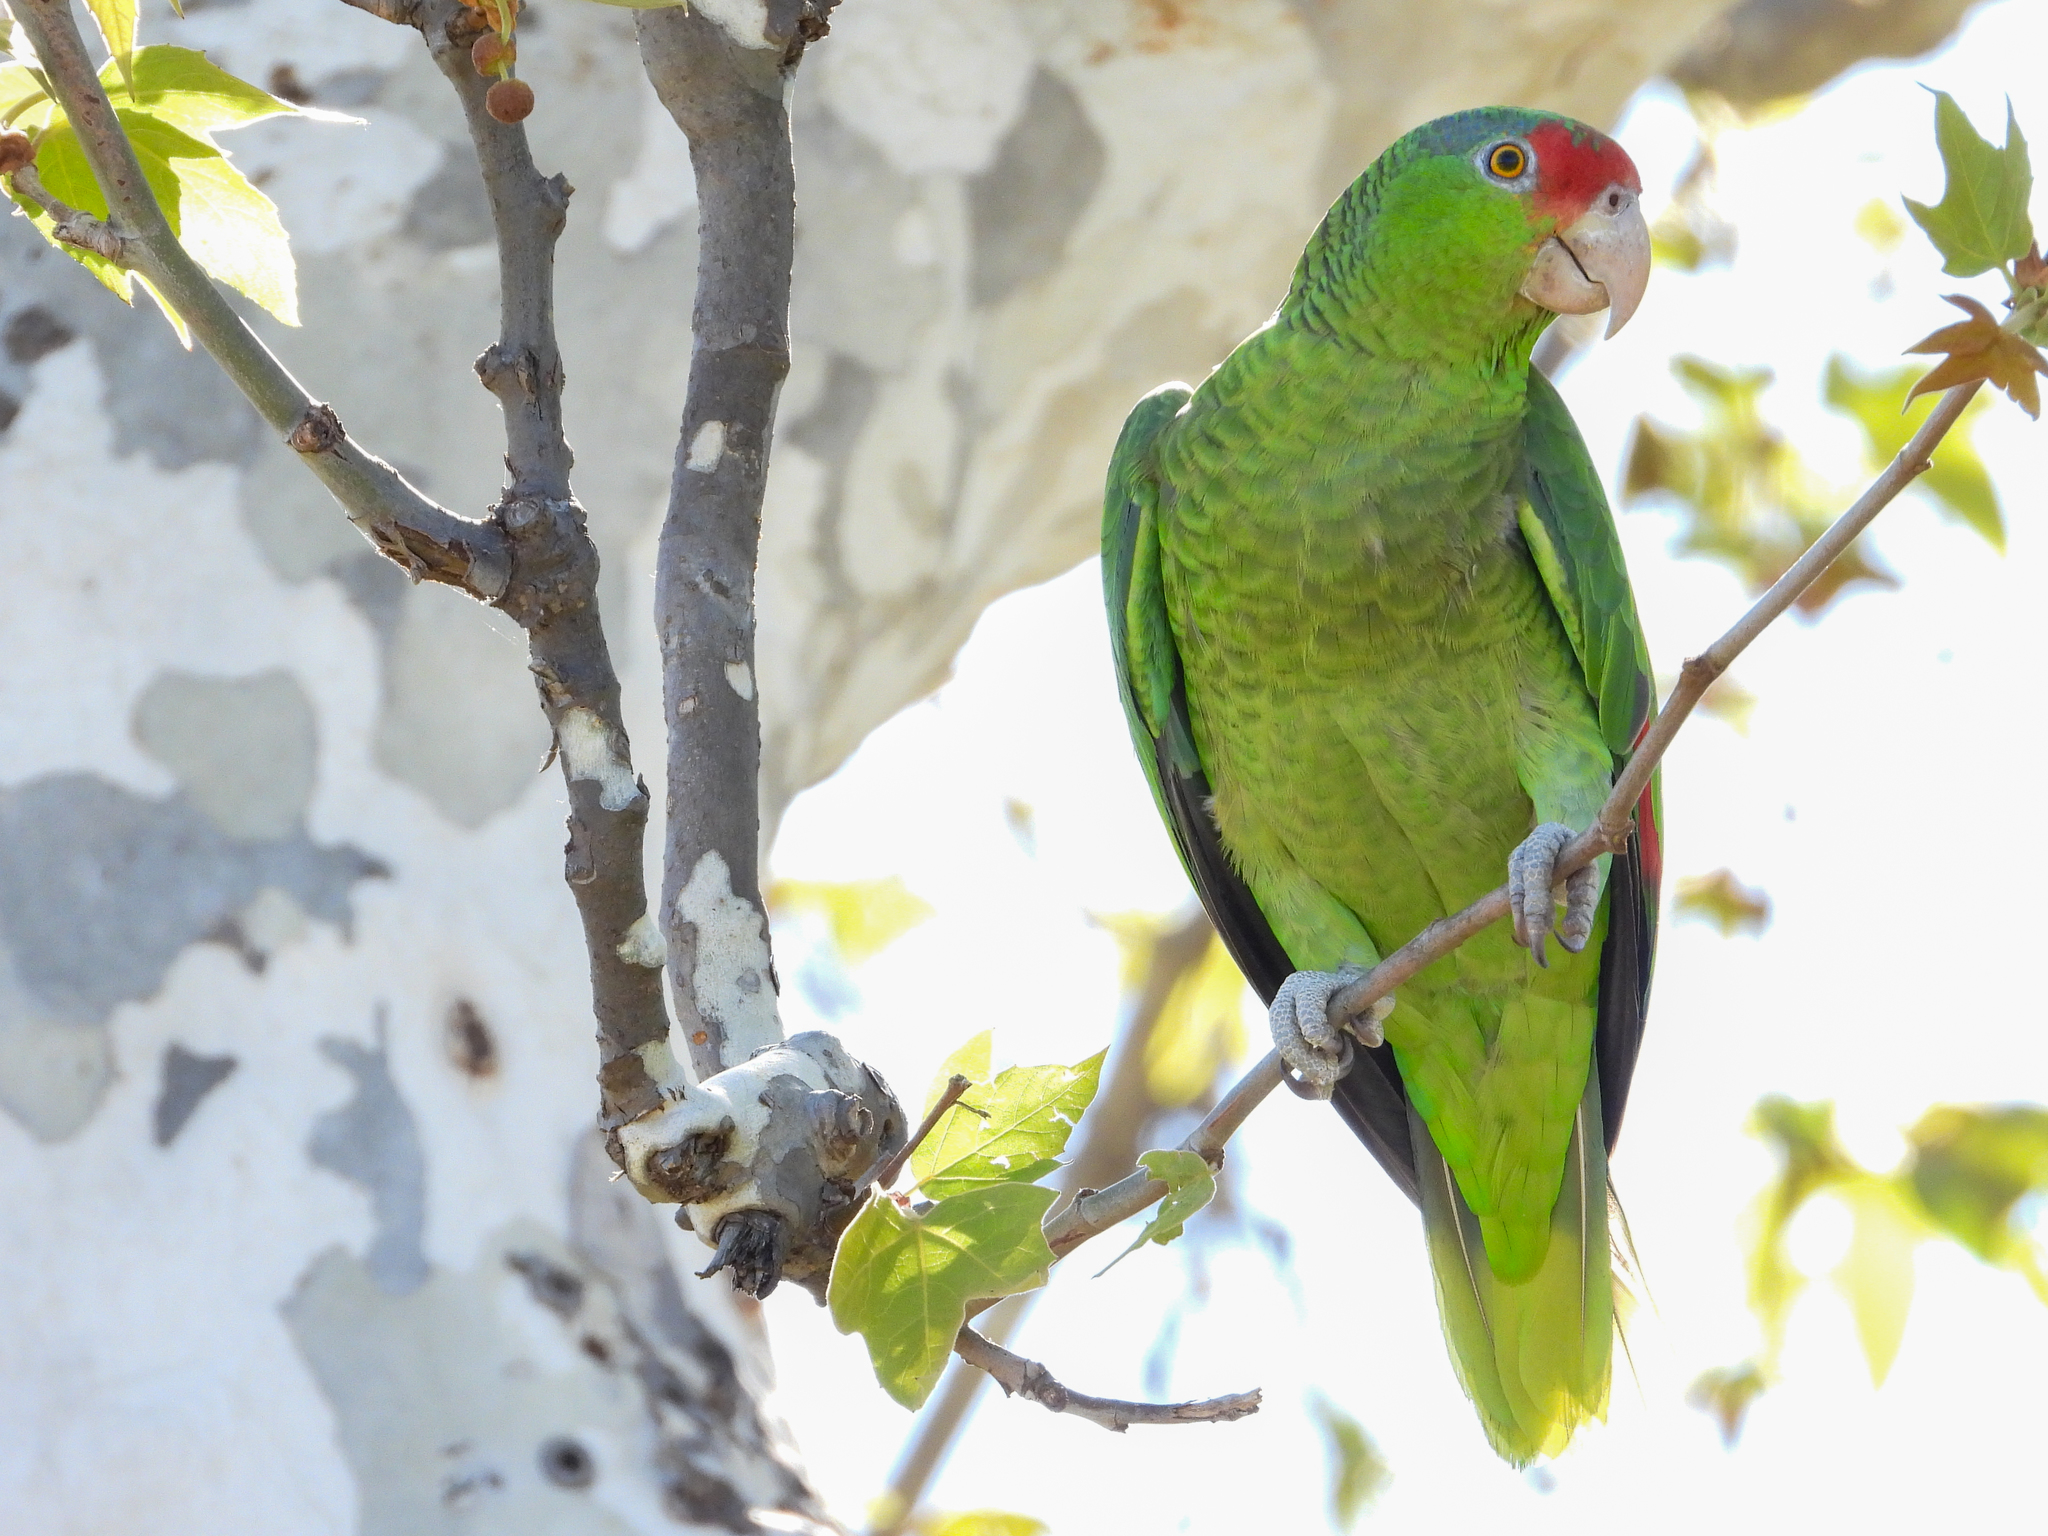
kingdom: Animalia
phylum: Chordata
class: Aves
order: Psittaciformes
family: Psittacidae
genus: Amazona
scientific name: Amazona viridigenalis
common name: Red-crowned amazon
